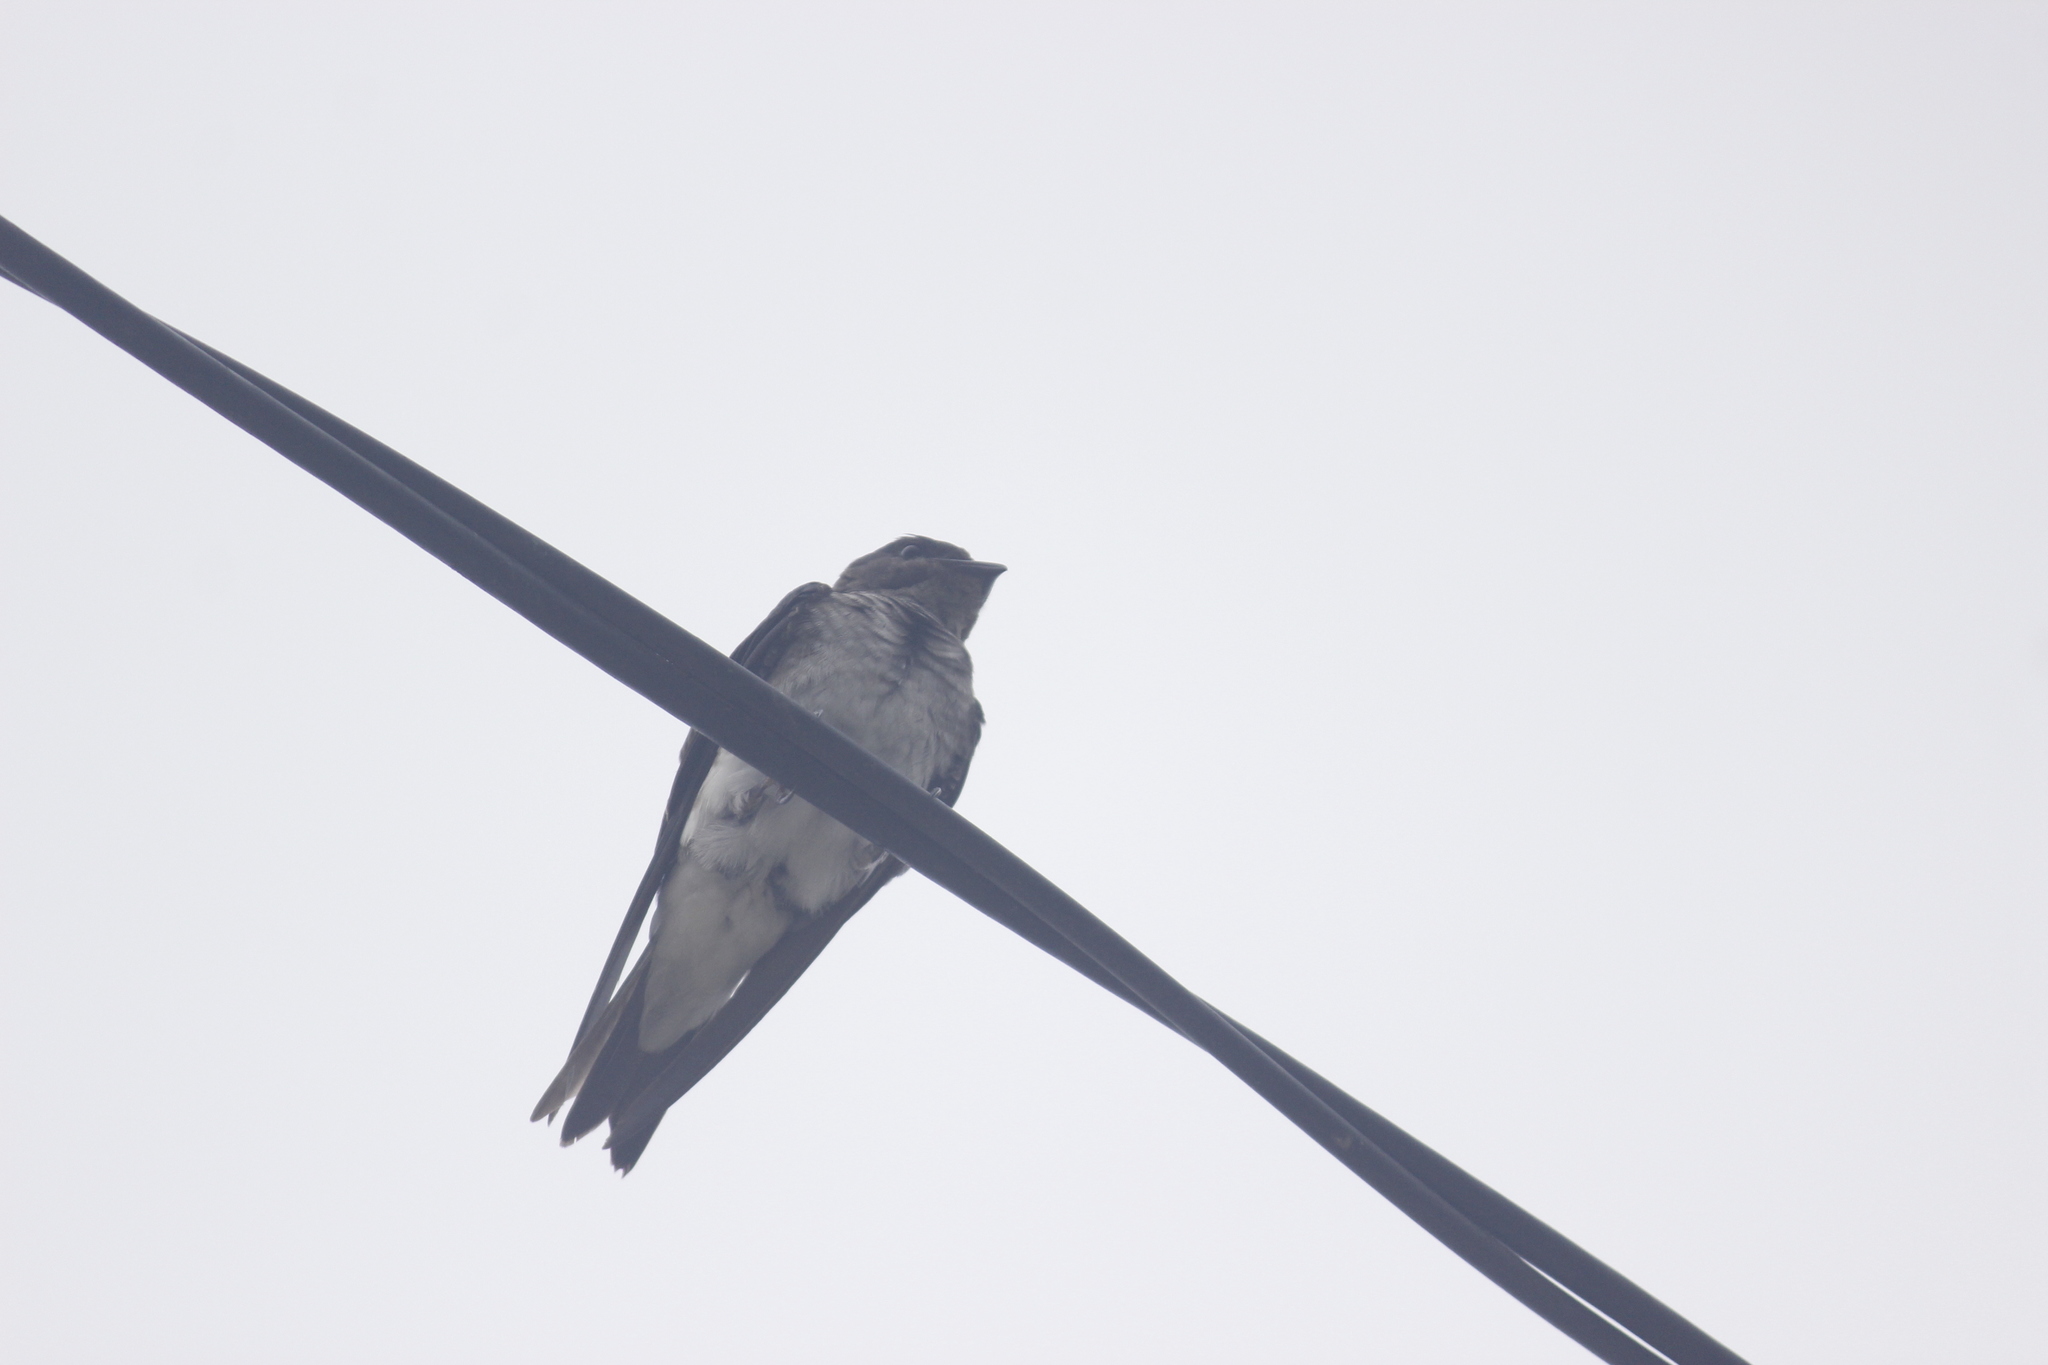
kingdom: Animalia
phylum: Chordata
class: Aves
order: Passeriformes
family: Hirundinidae
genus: Progne
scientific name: Progne tapera
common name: Brown-chested martin
